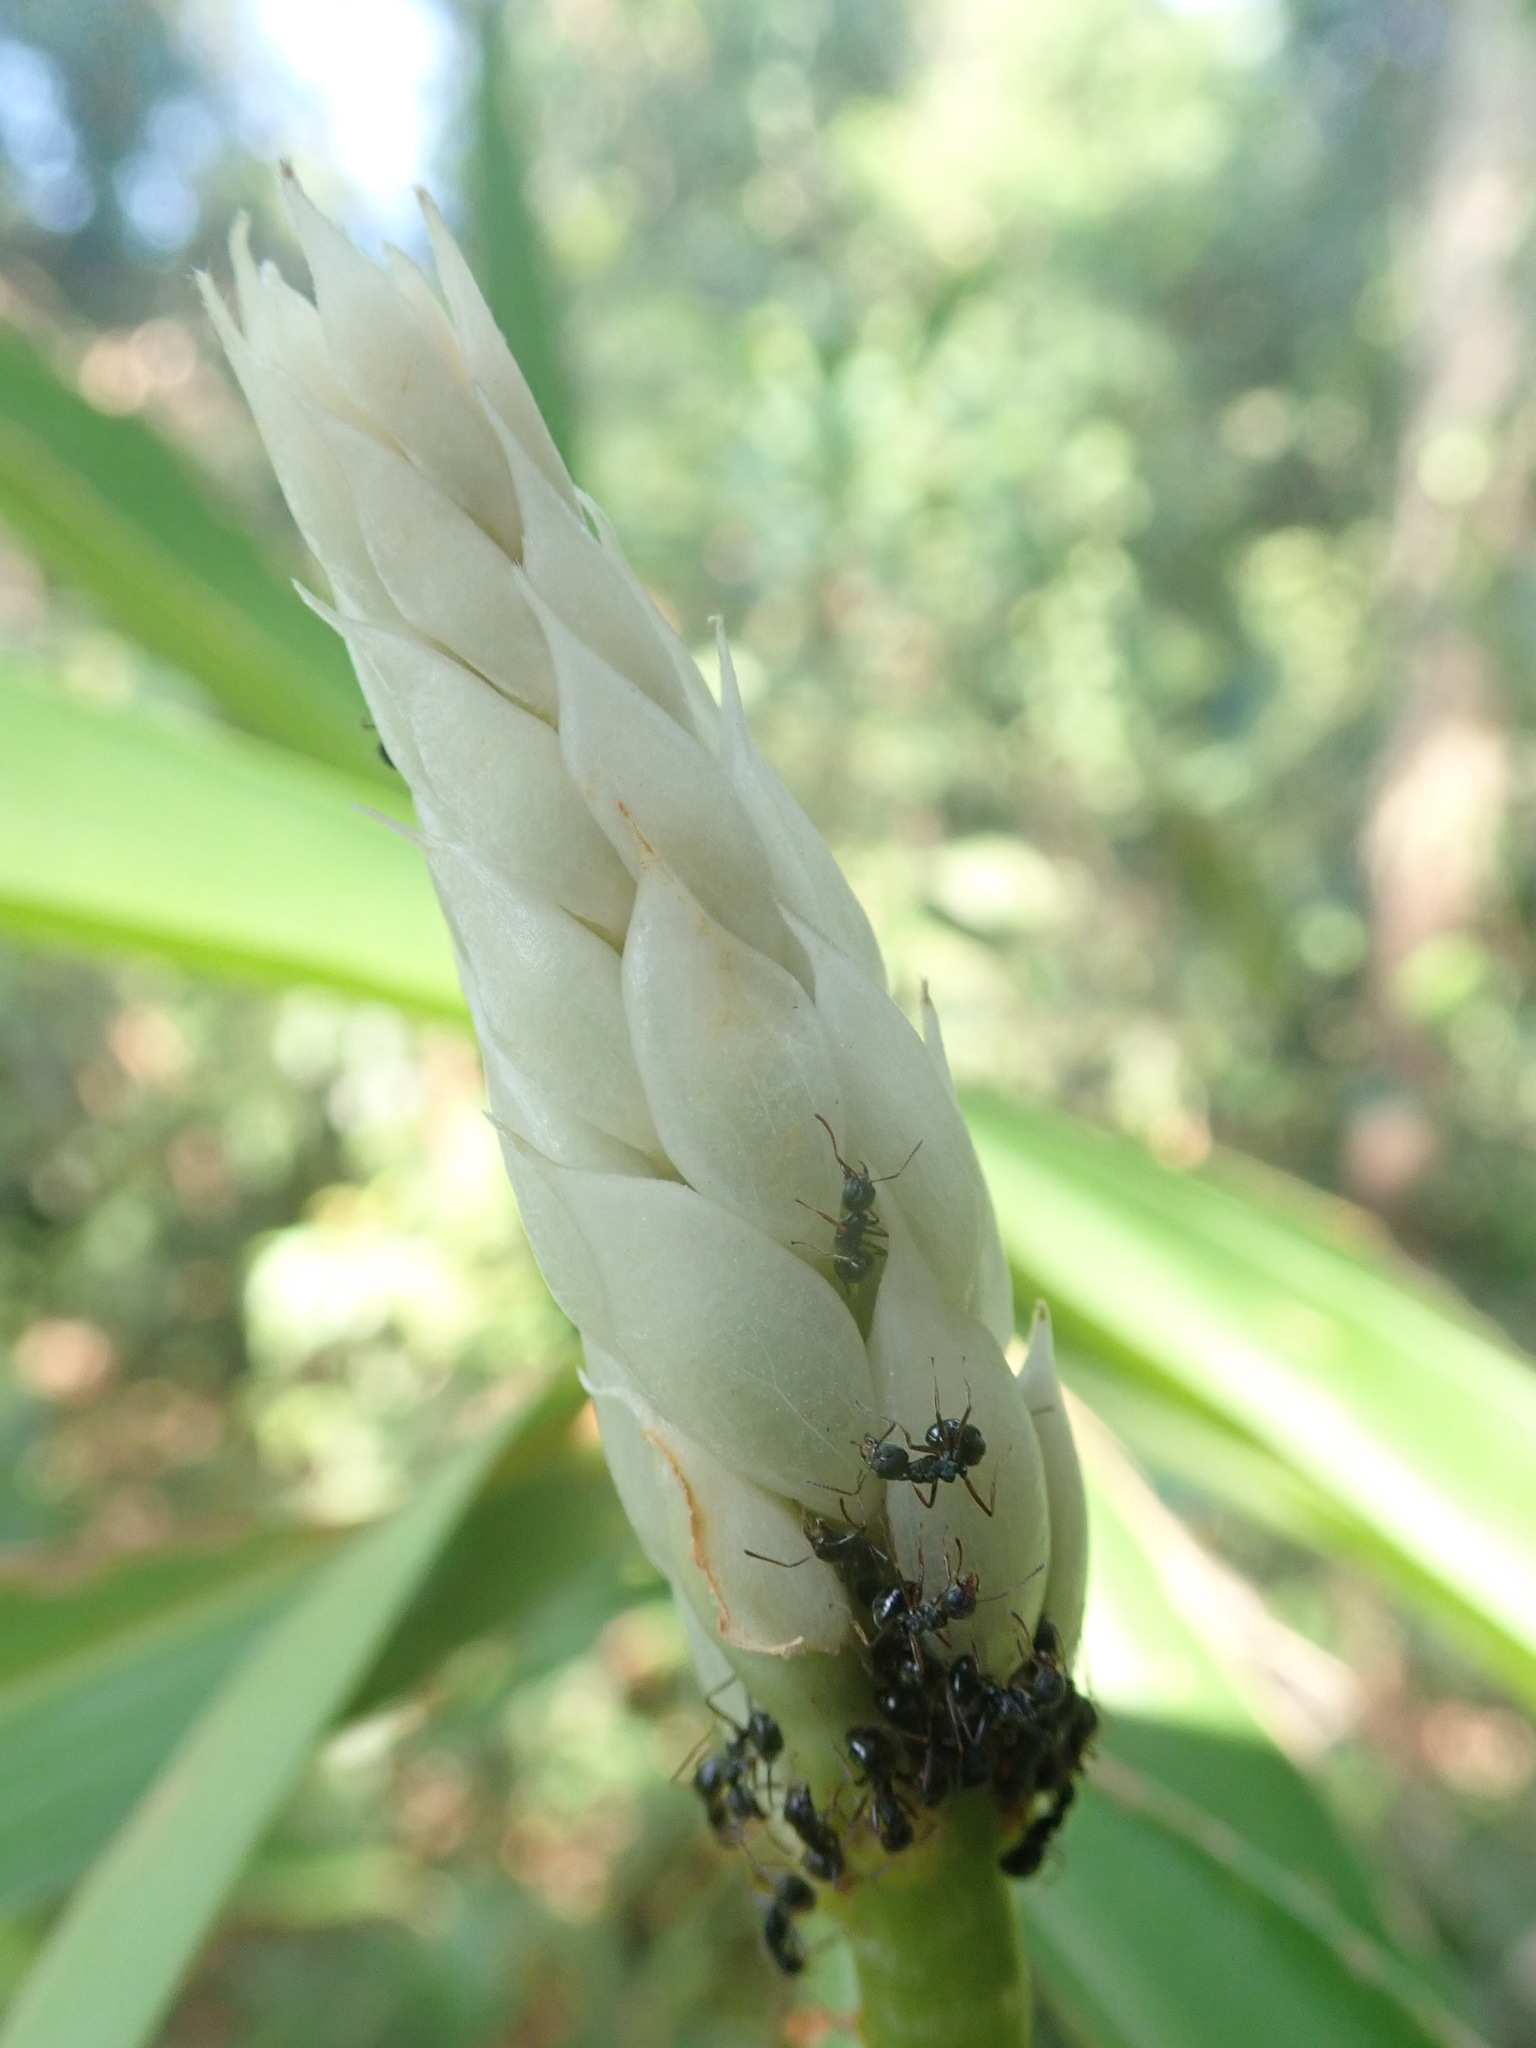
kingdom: Plantae
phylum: Tracheophyta
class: Liliopsida
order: Zingiberales
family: Zingiberaceae
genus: Alpinia
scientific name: Alpinia oxymitra
